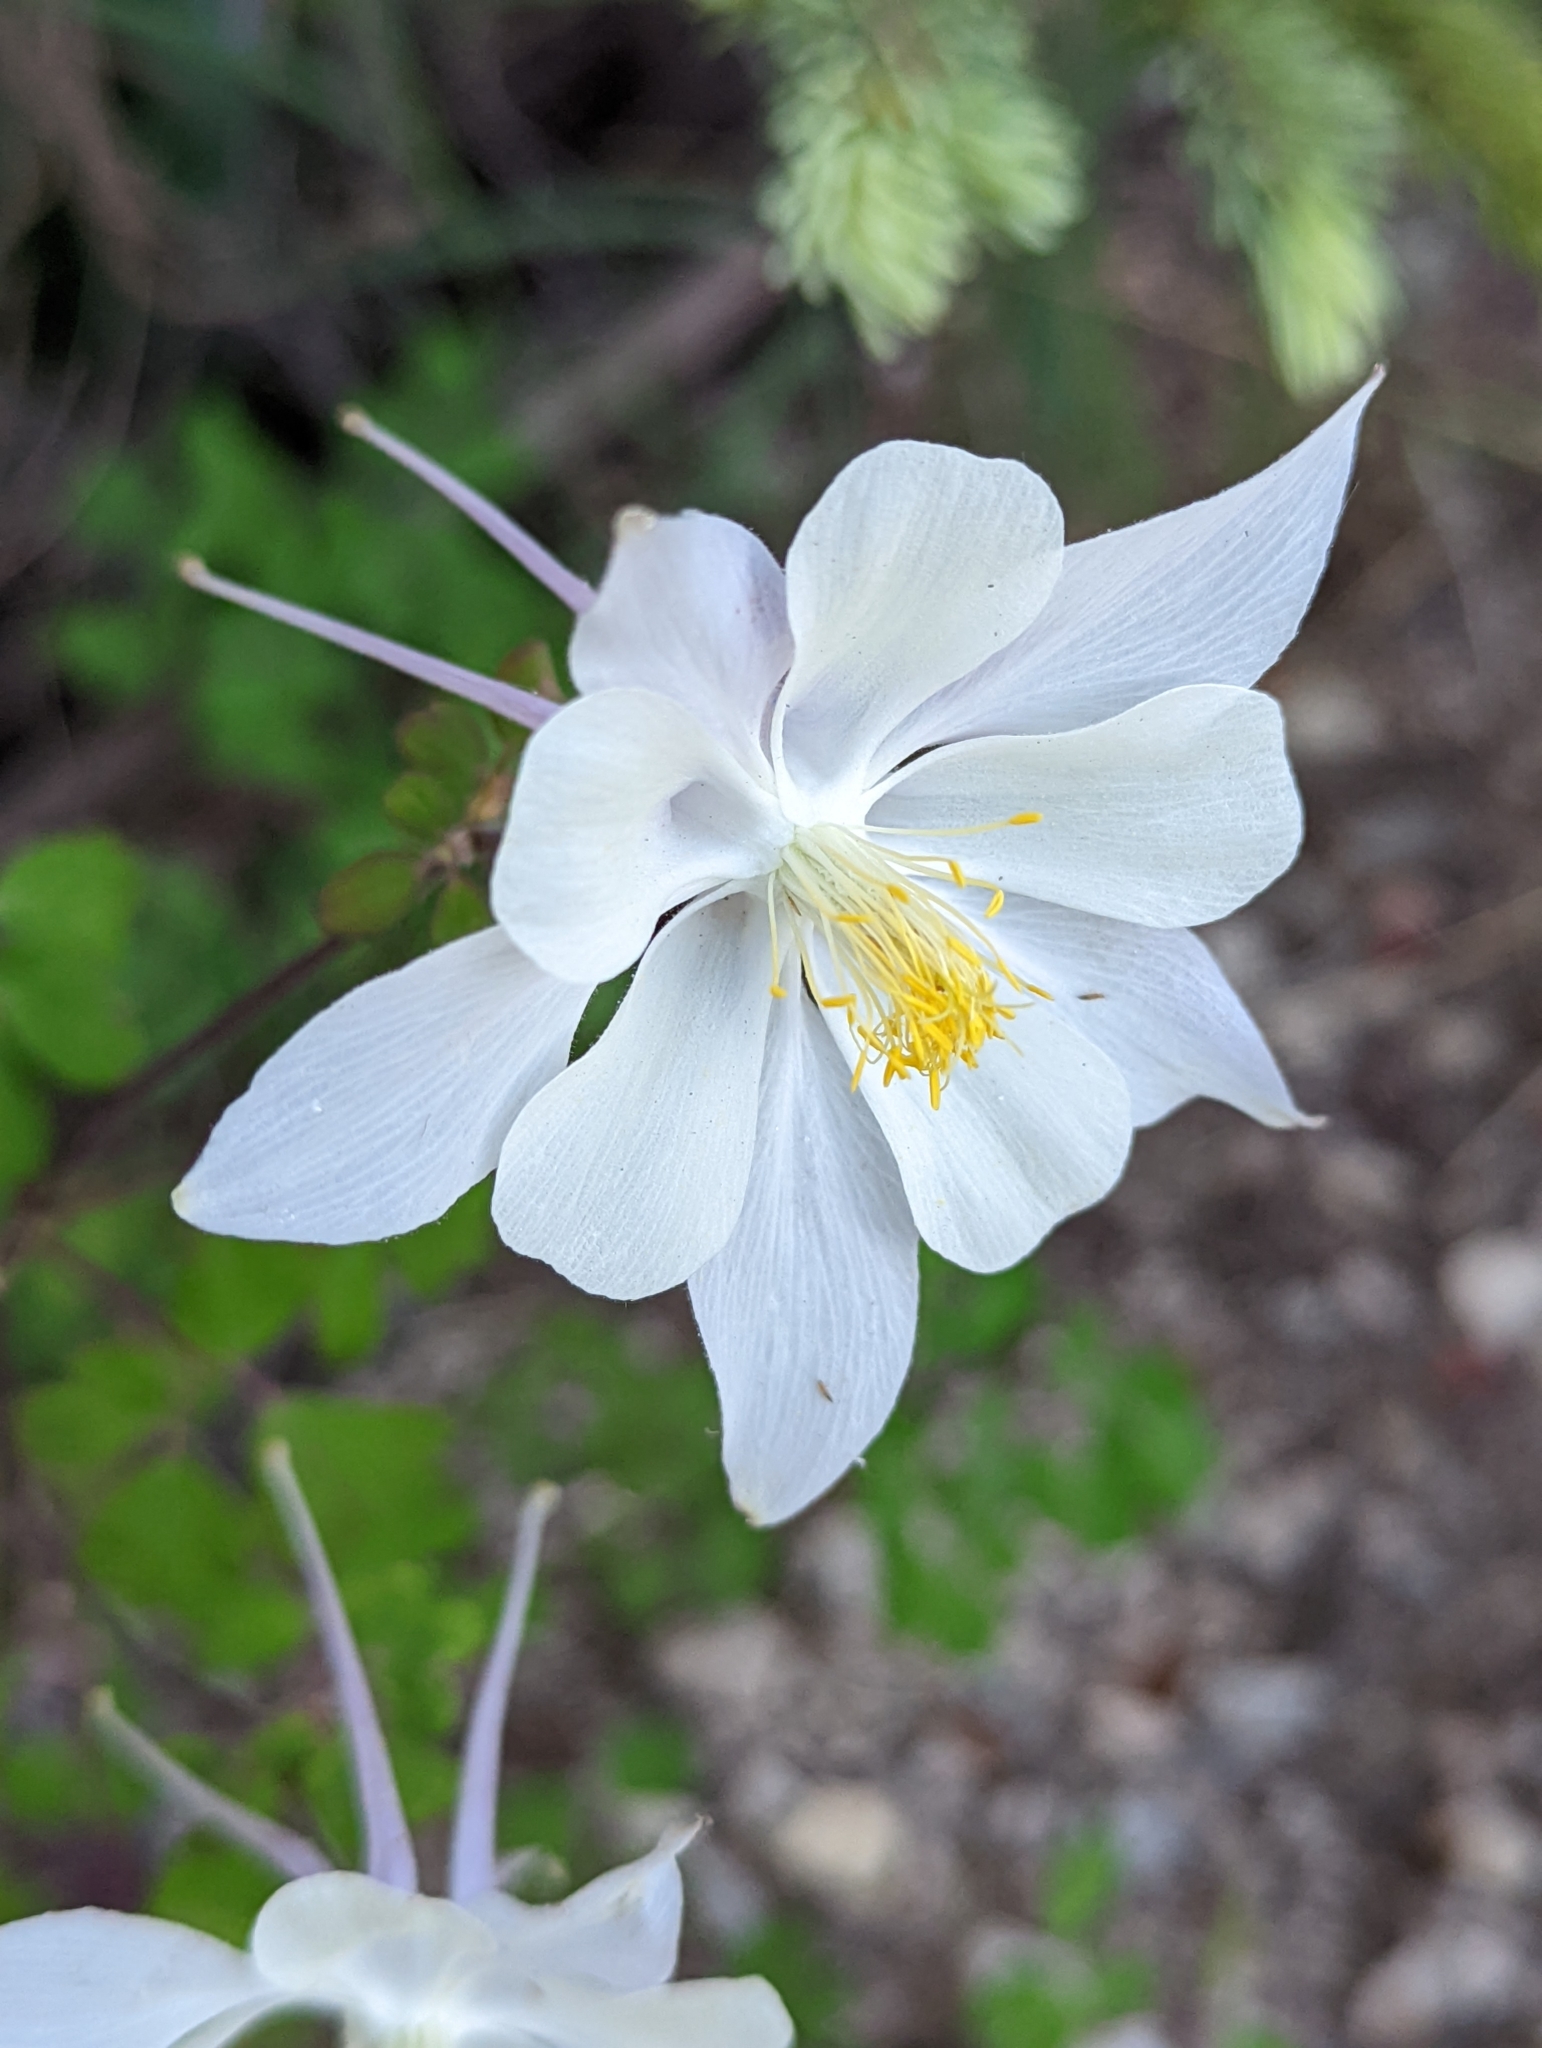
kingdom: Plantae
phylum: Tracheophyta
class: Magnoliopsida
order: Ranunculales
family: Ranunculaceae
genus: Aquilegia
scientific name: Aquilegia coerulea
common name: Rocky mountain columbine
